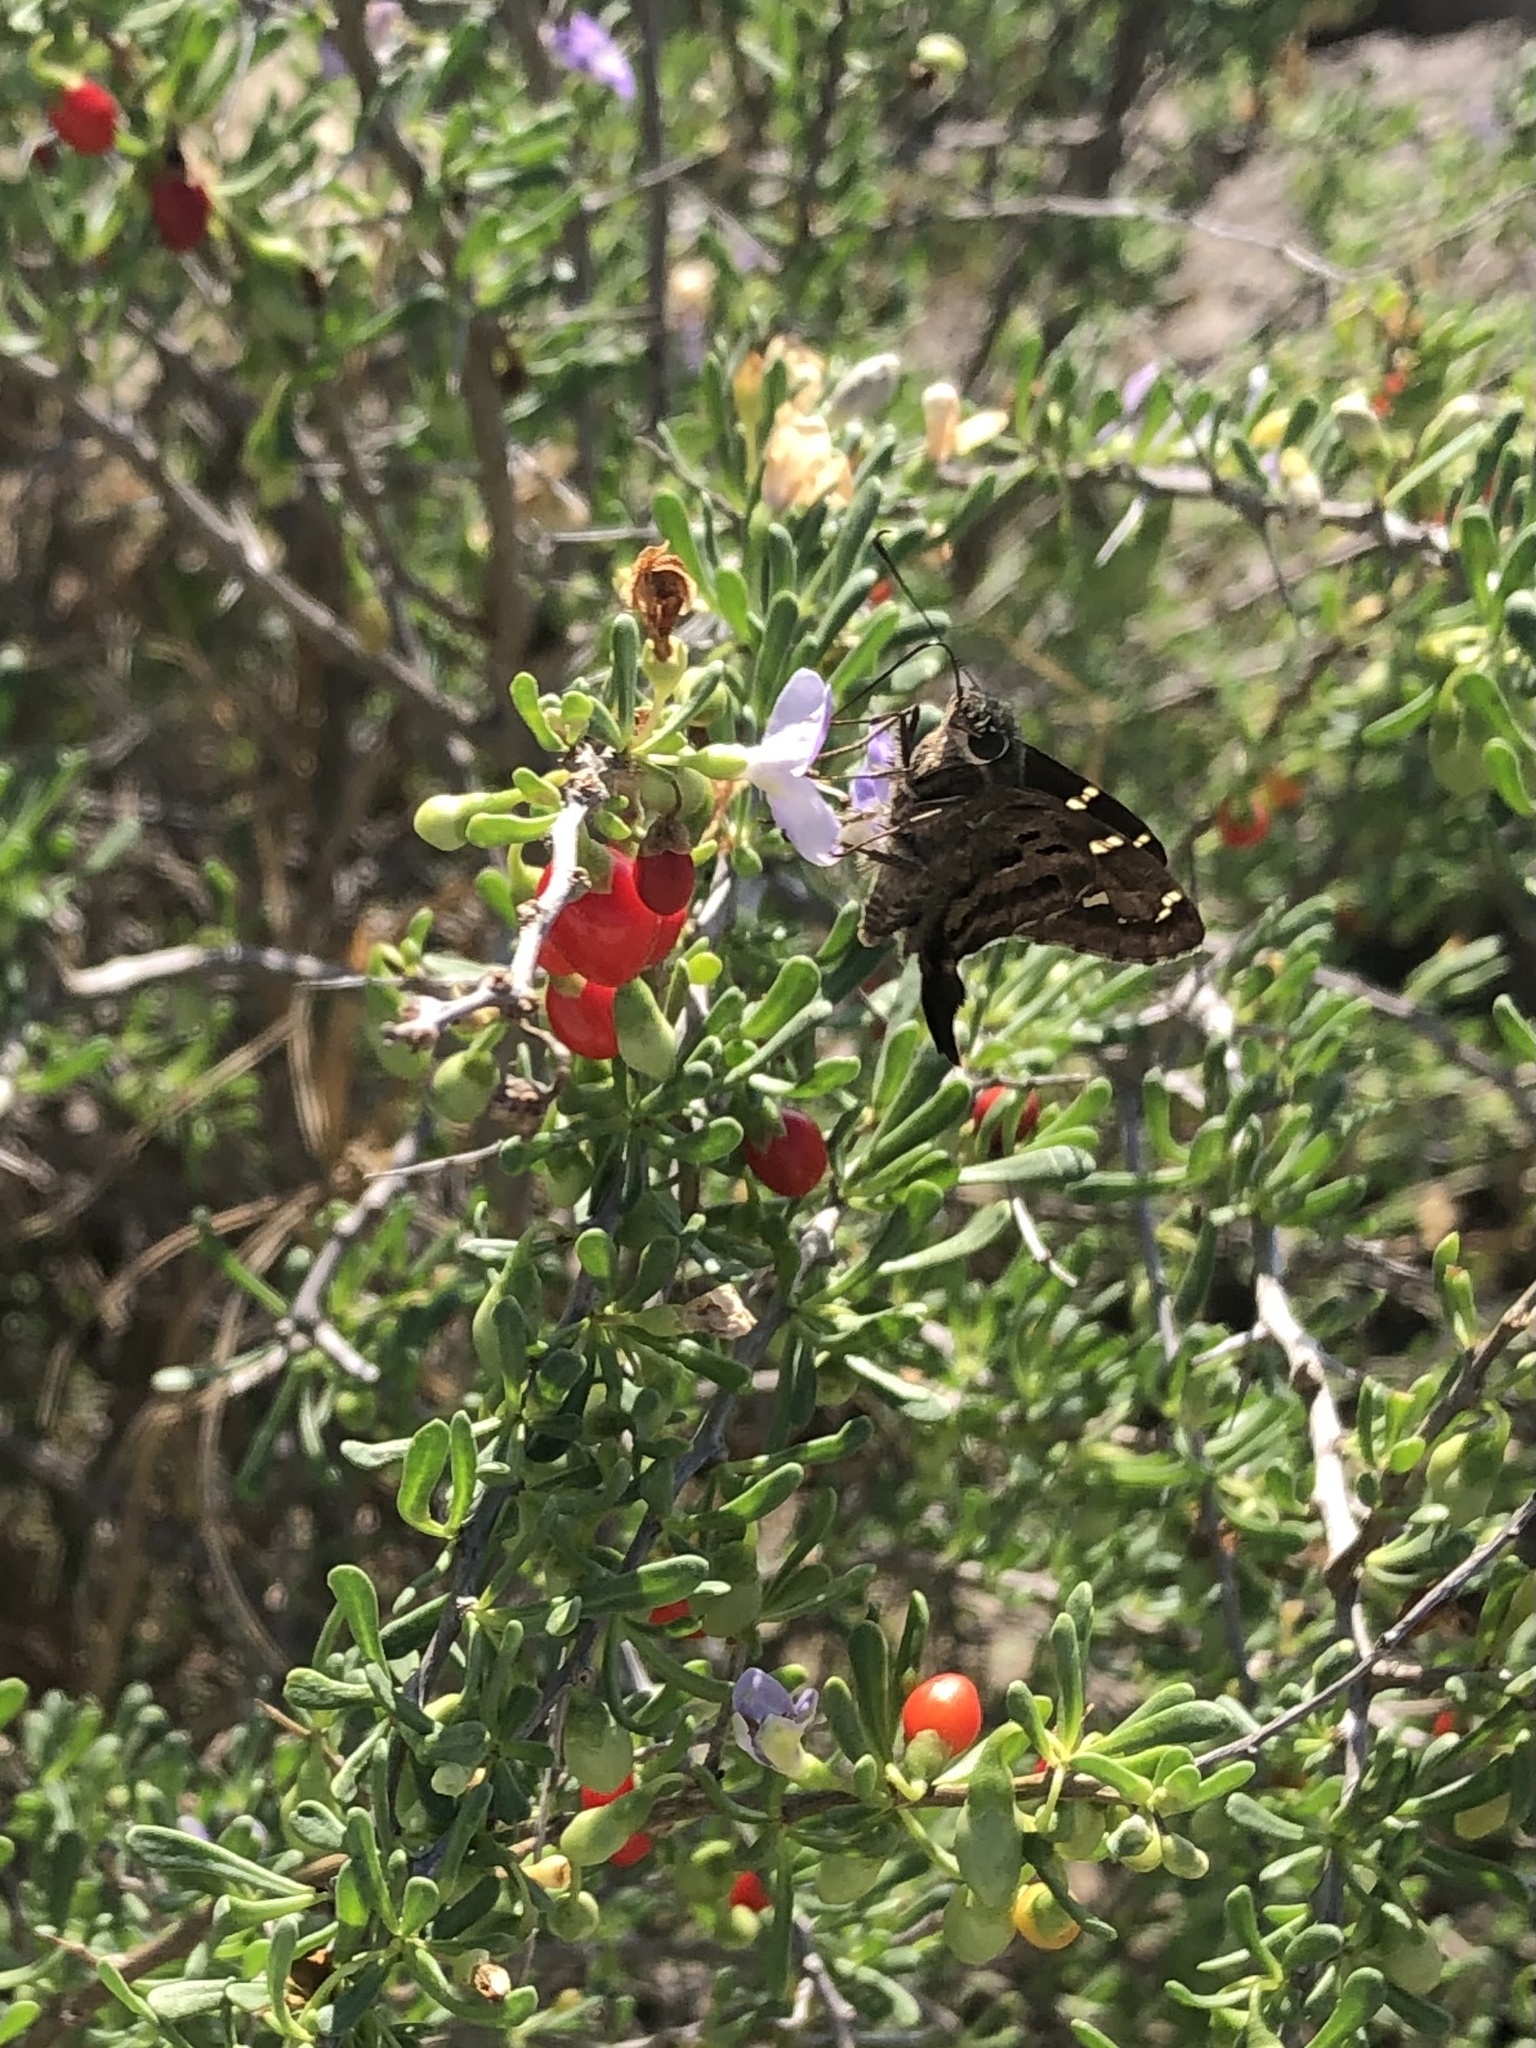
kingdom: Animalia
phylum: Arthropoda
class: Insecta
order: Lepidoptera
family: Hesperiidae
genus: Urbanus
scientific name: Urbanus proteus
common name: Long-tailed skipper
